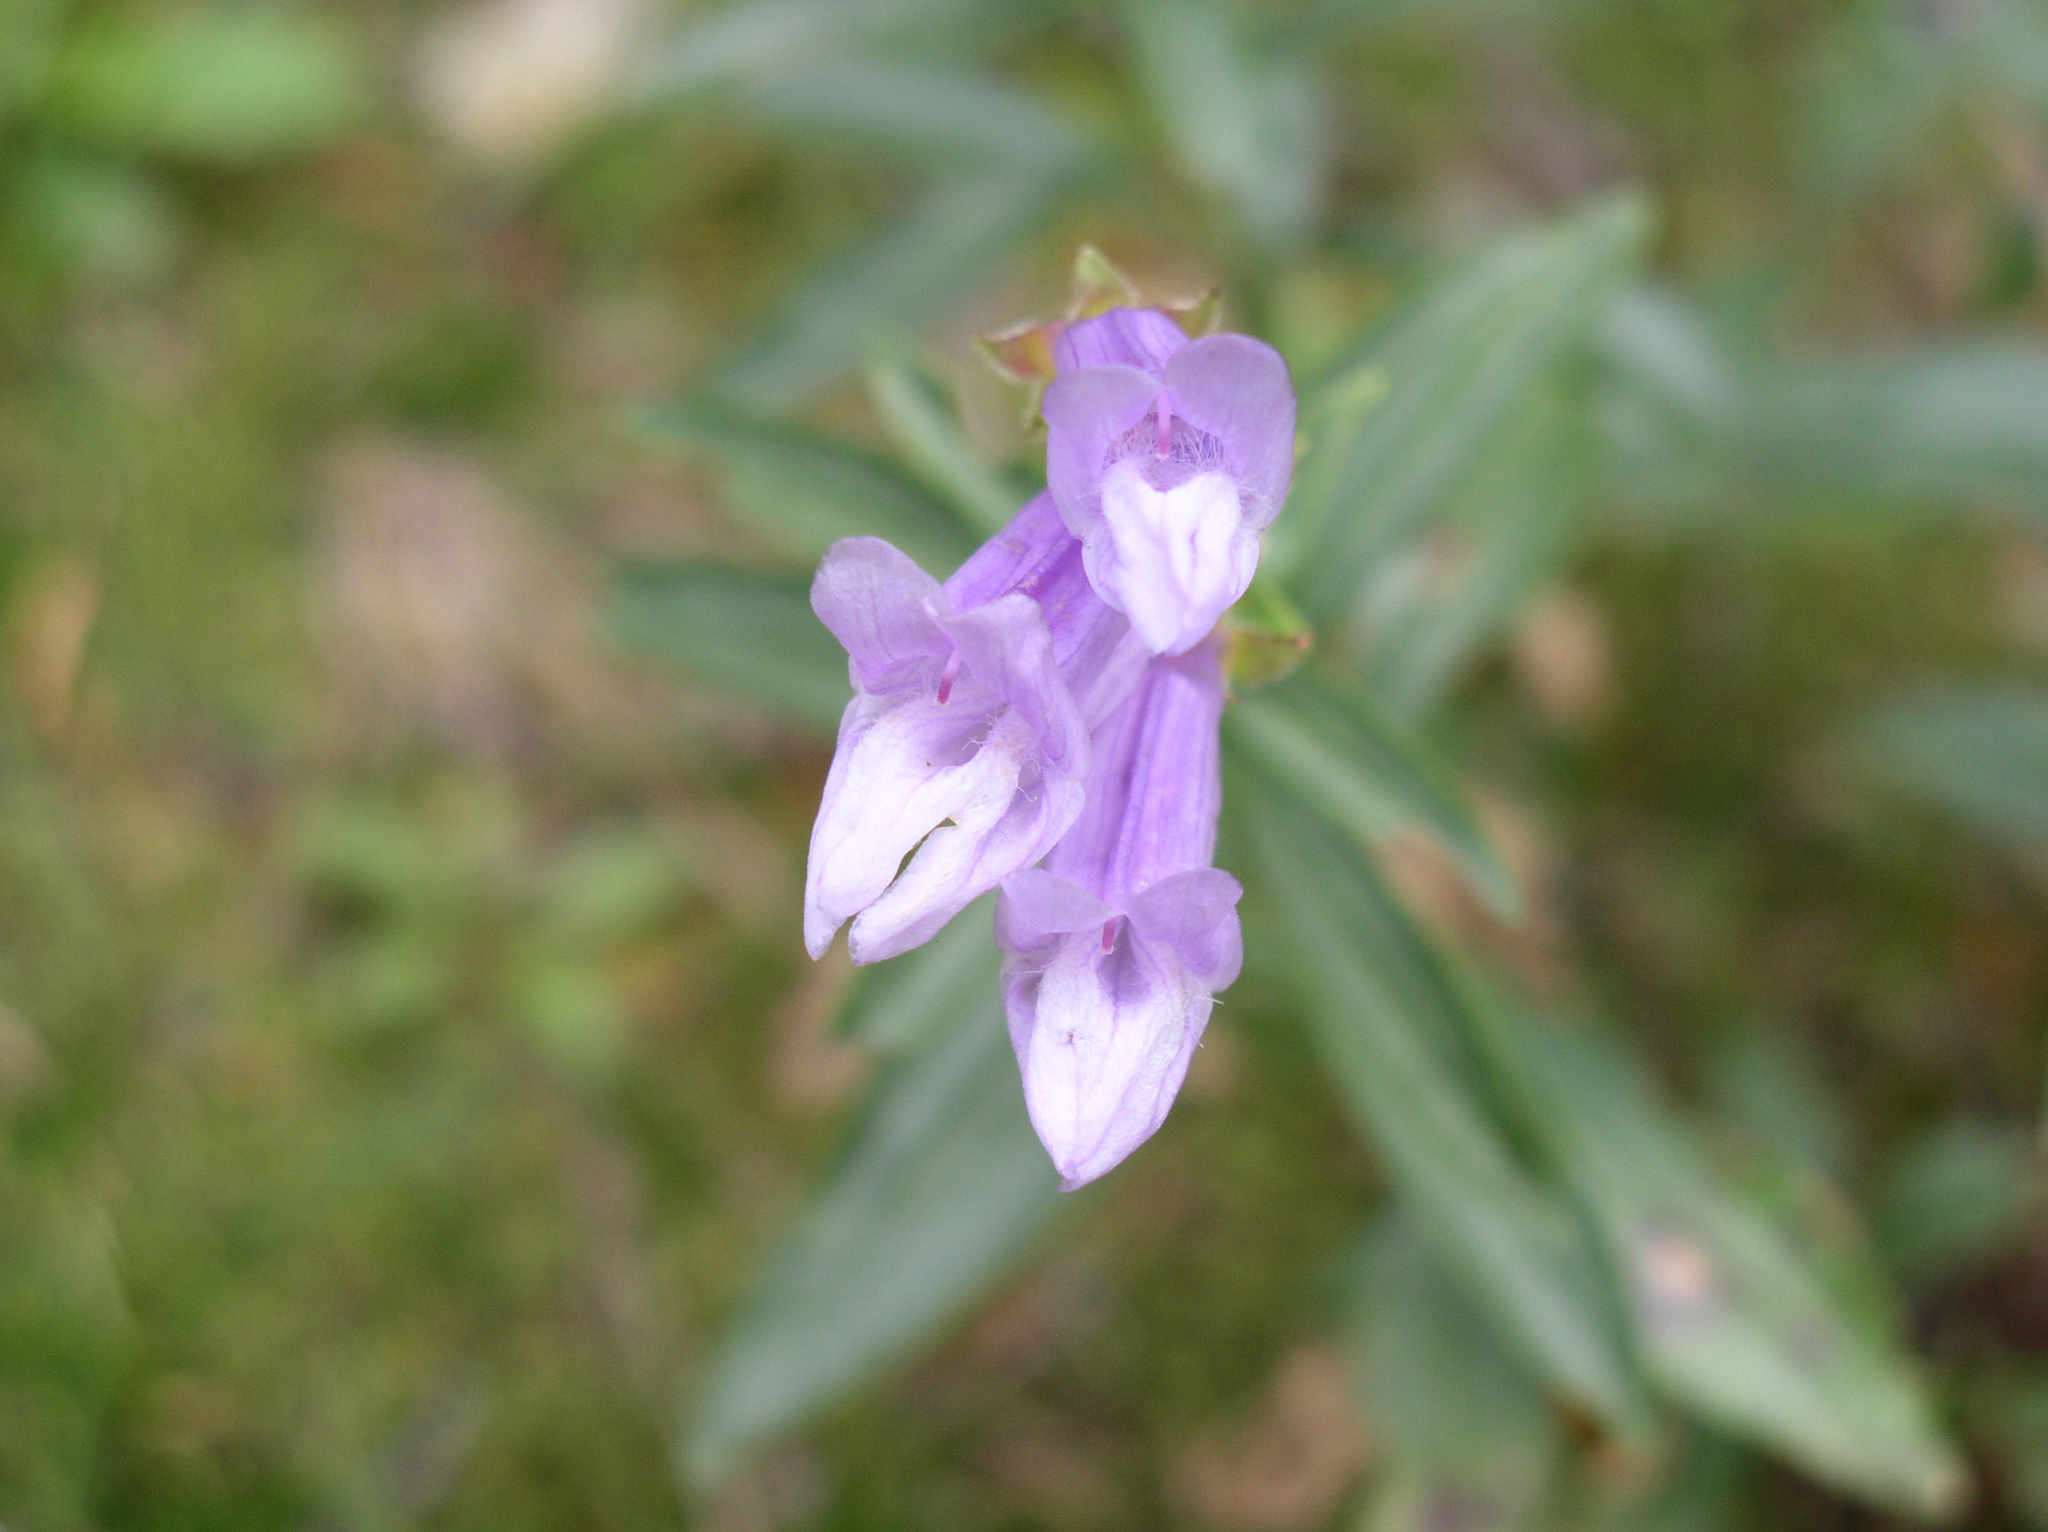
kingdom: Plantae
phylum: Tracheophyta
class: Magnoliopsida
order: Lamiales
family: Plantaginaceae
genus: Penstemon
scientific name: Penstemon lyalli
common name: Lyall's beardtongue
